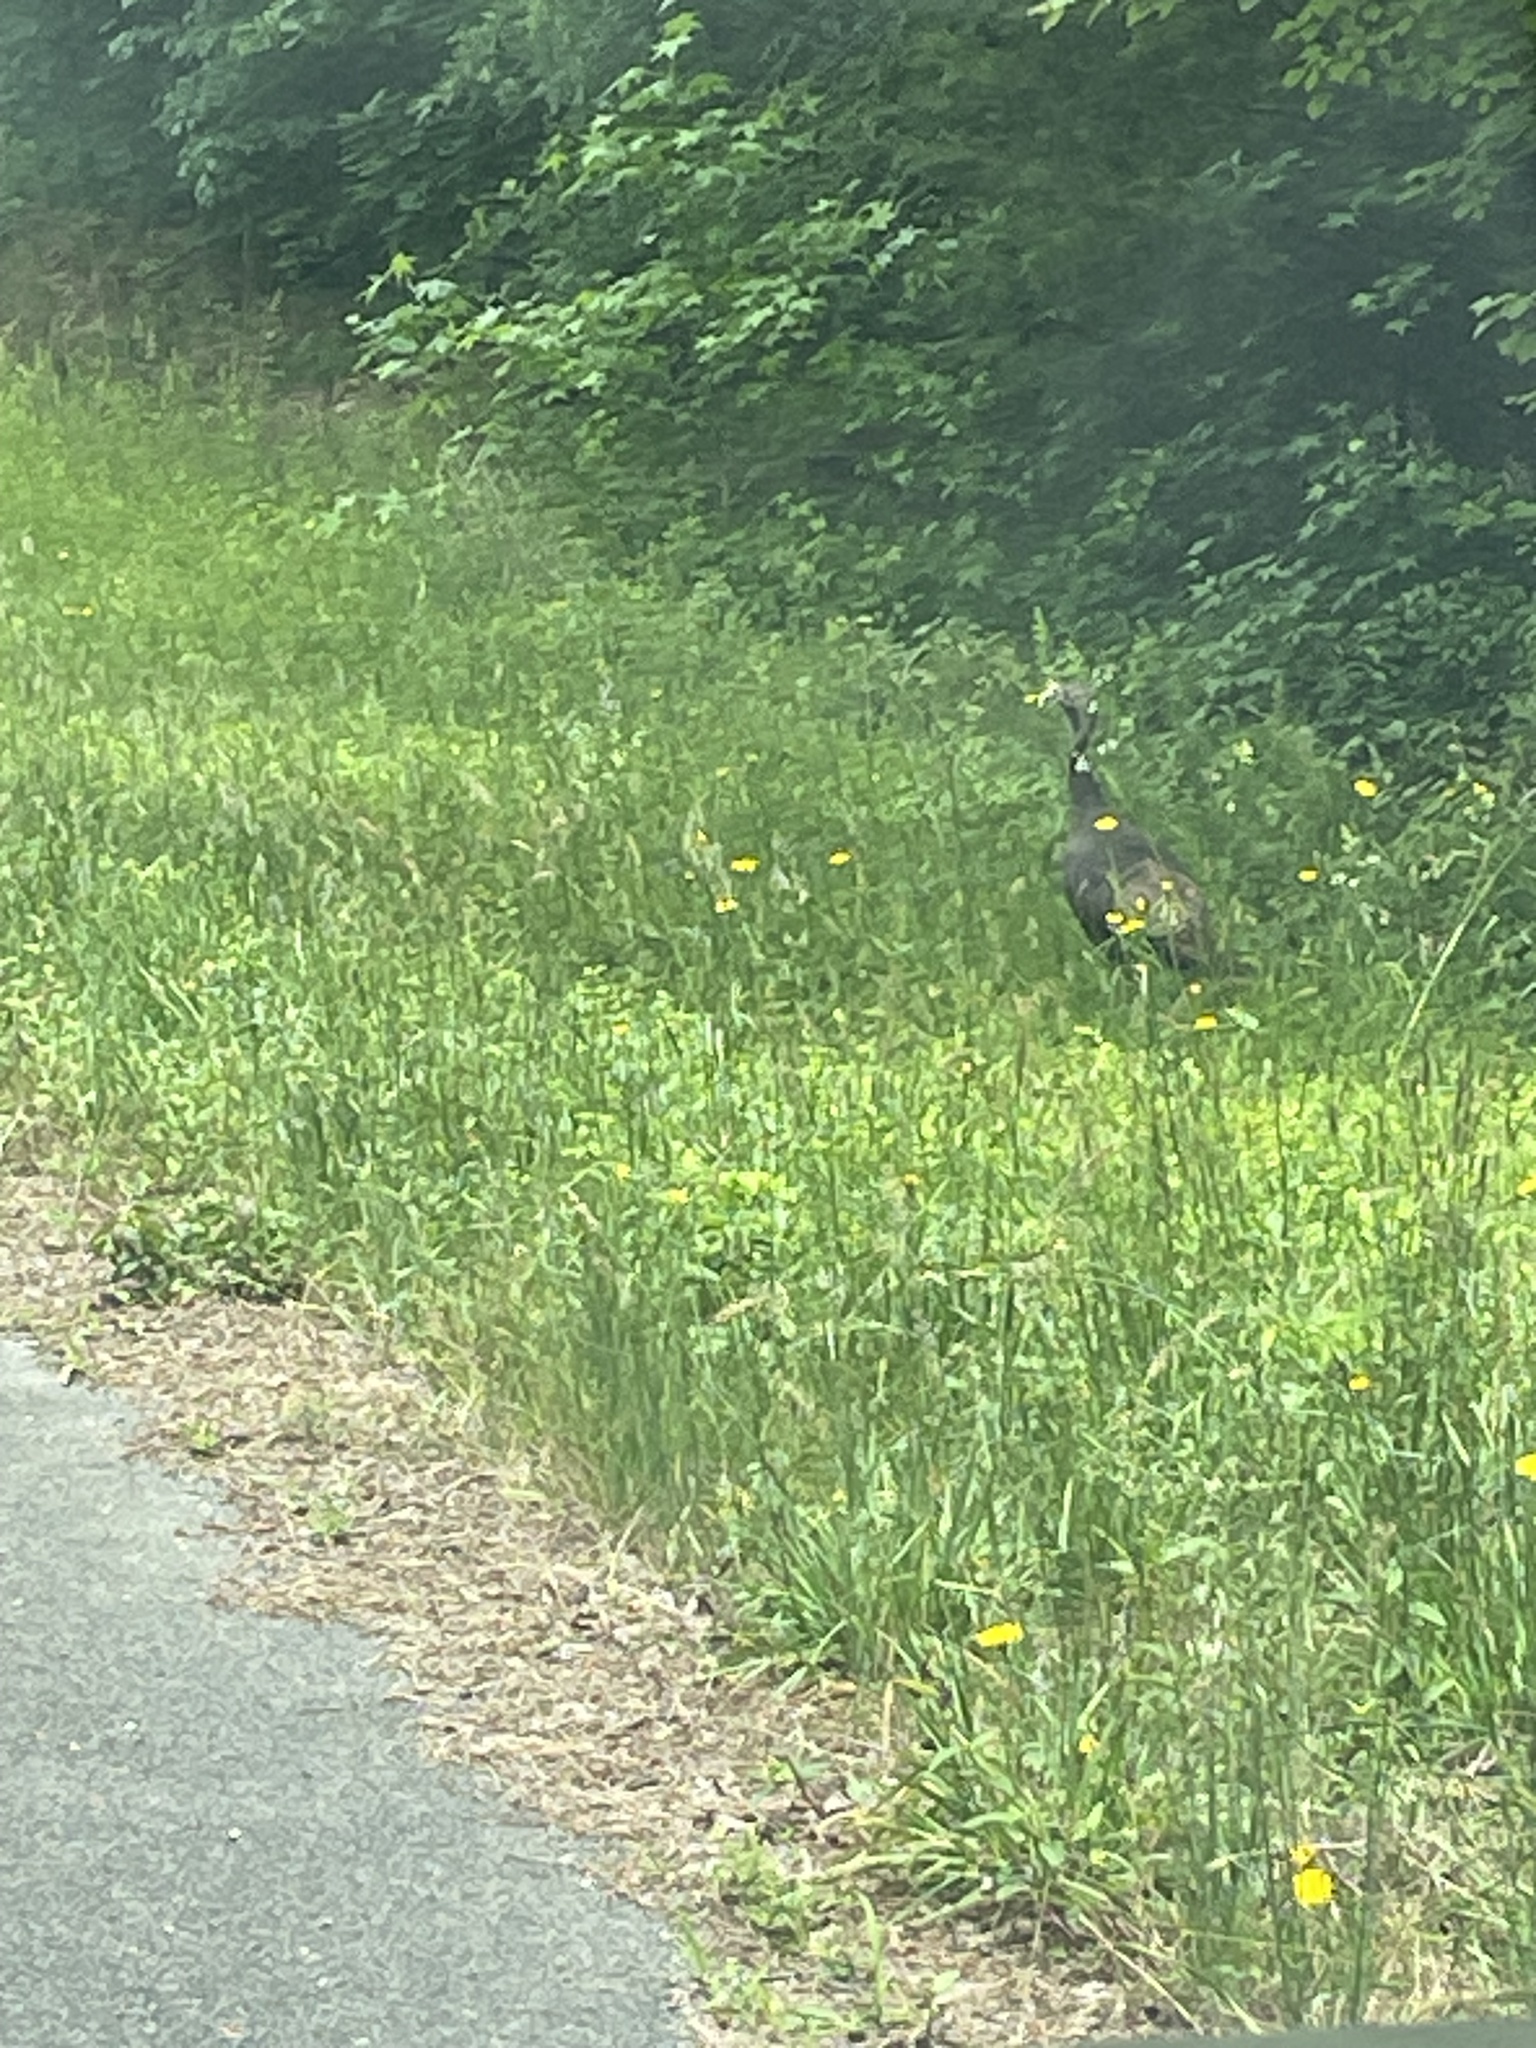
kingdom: Animalia
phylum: Chordata
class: Aves
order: Galliformes
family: Phasianidae
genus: Meleagris
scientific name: Meleagris gallopavo
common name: Wild turkey
